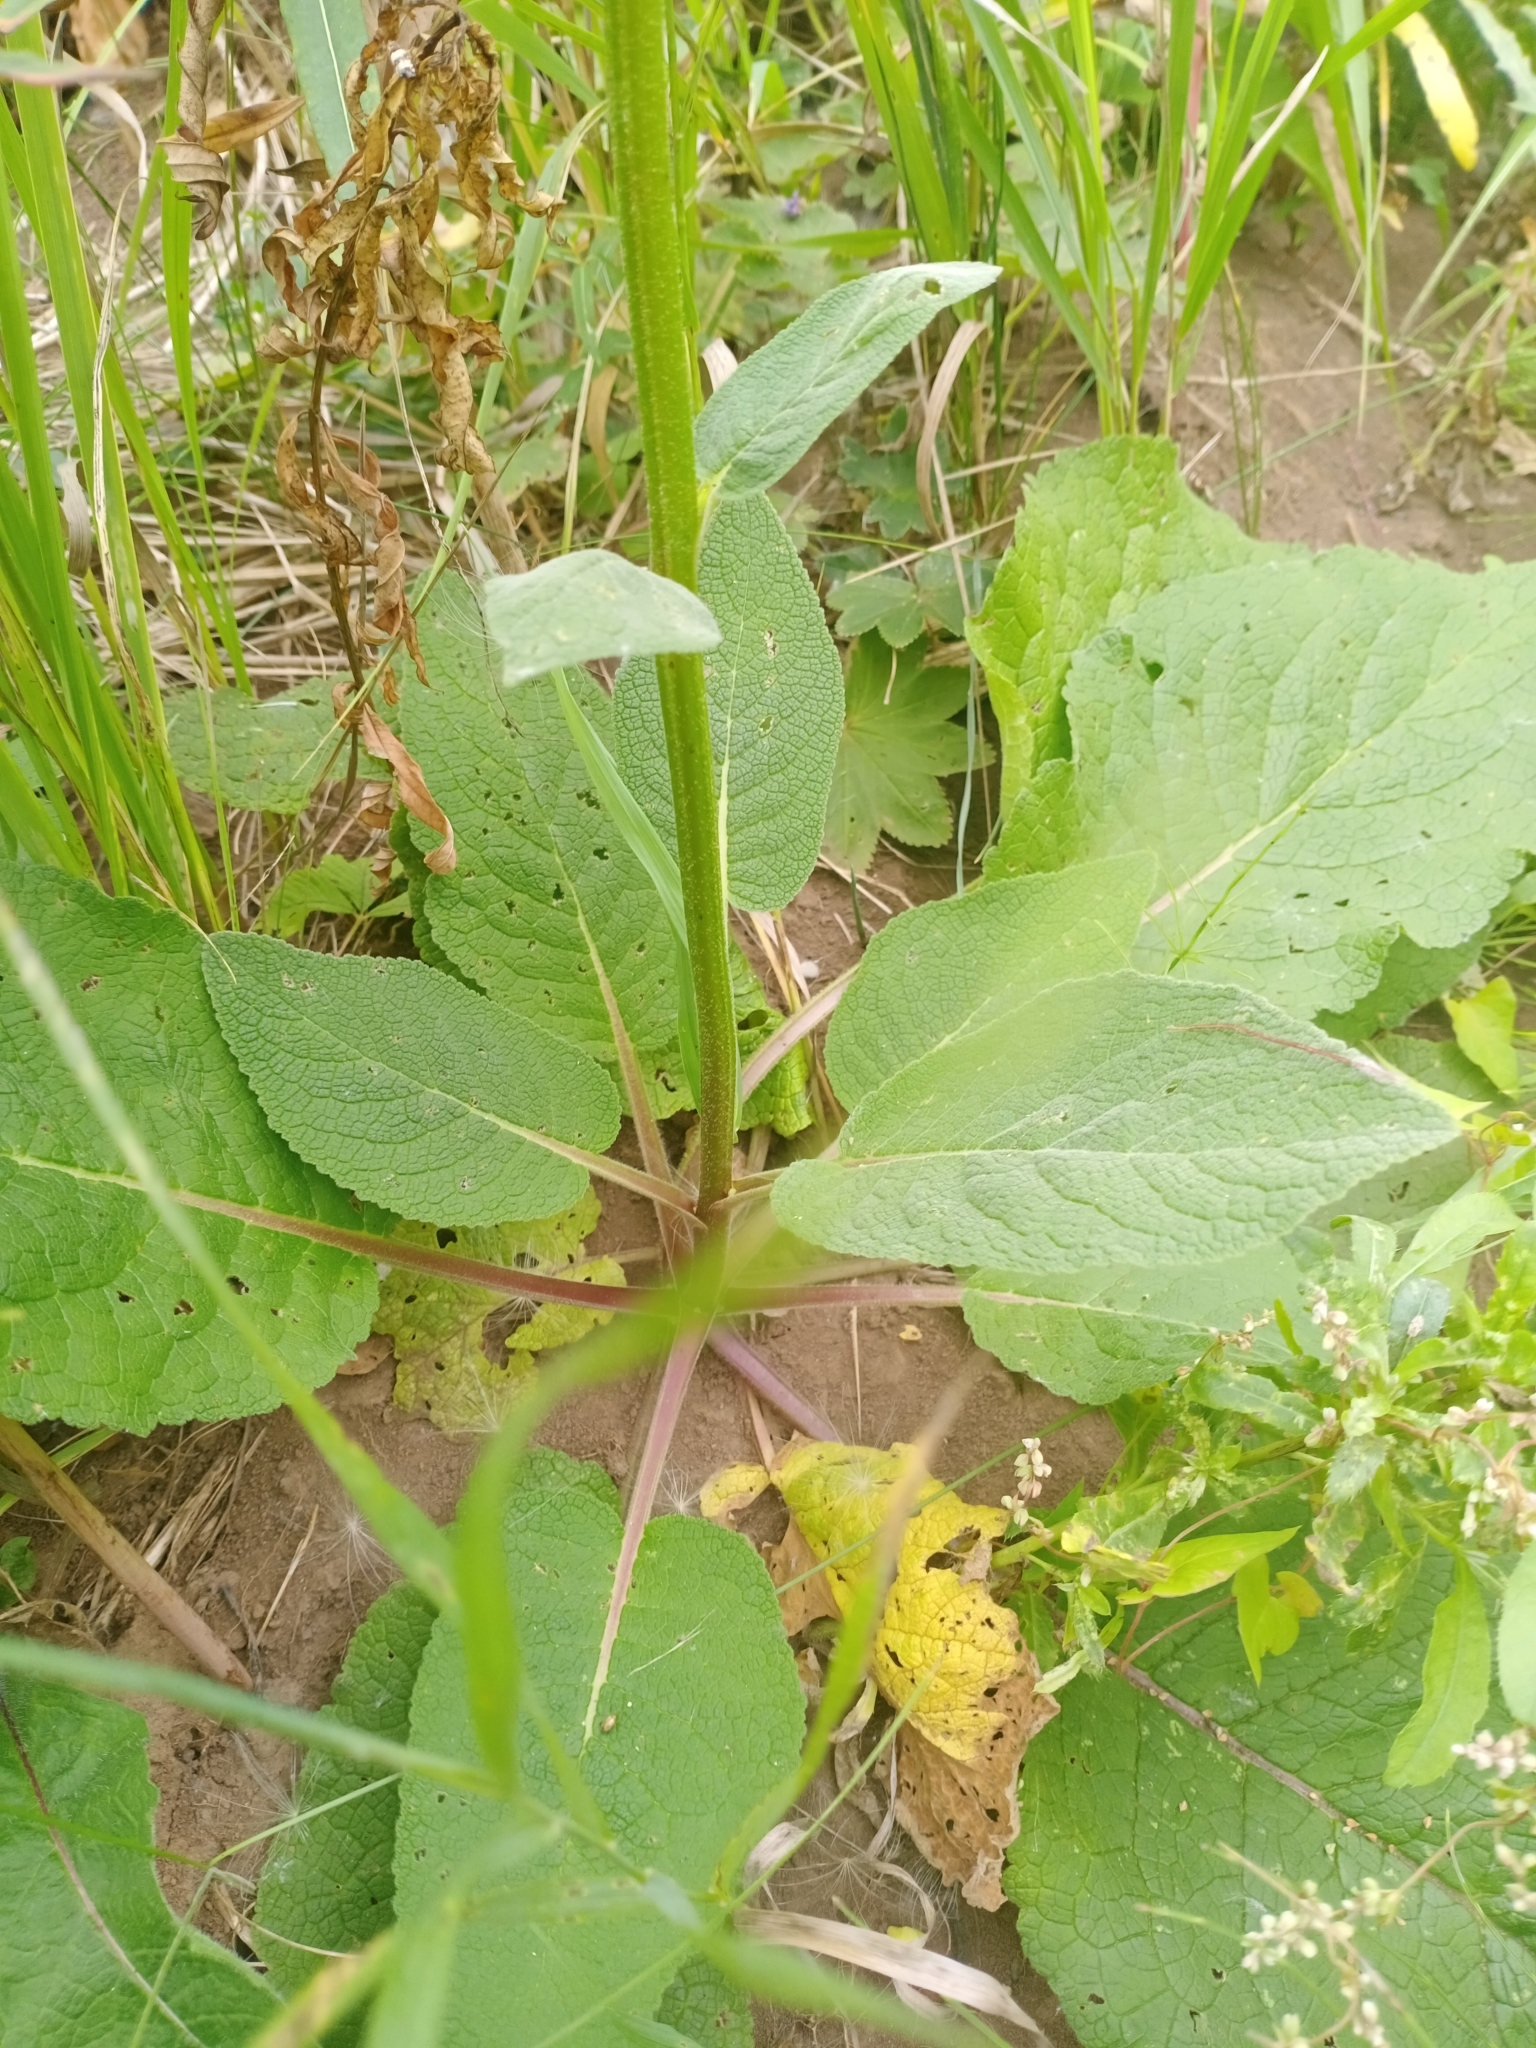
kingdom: Plantae
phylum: Tracheophyta
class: Magnoliopsida
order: Lamiales
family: Scrophulariaceae
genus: Verbascum
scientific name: Verbascum nigrum
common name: Dark mullein
